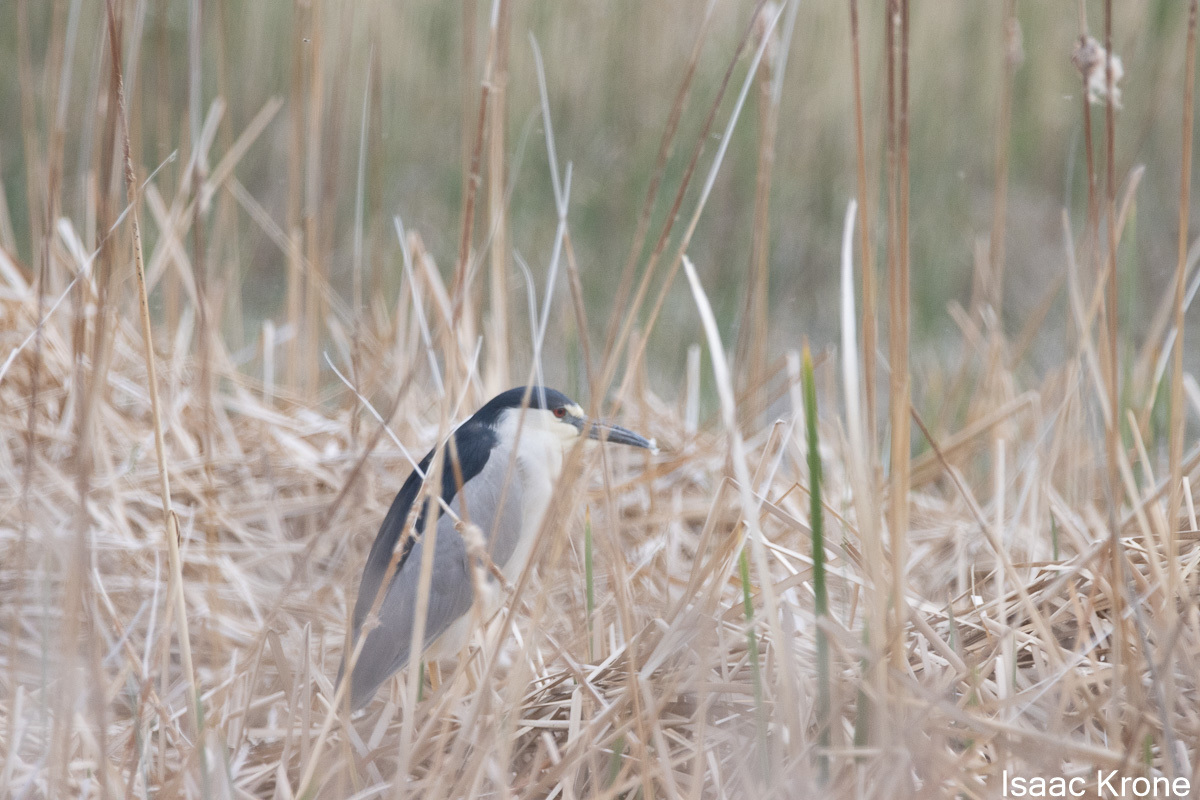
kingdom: Animalia
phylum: Chordata
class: Aves
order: Pelecaniformes
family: Ardeidae
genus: Nycticorax
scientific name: Nycticorax nycticorax
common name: Black-crowned night heron
